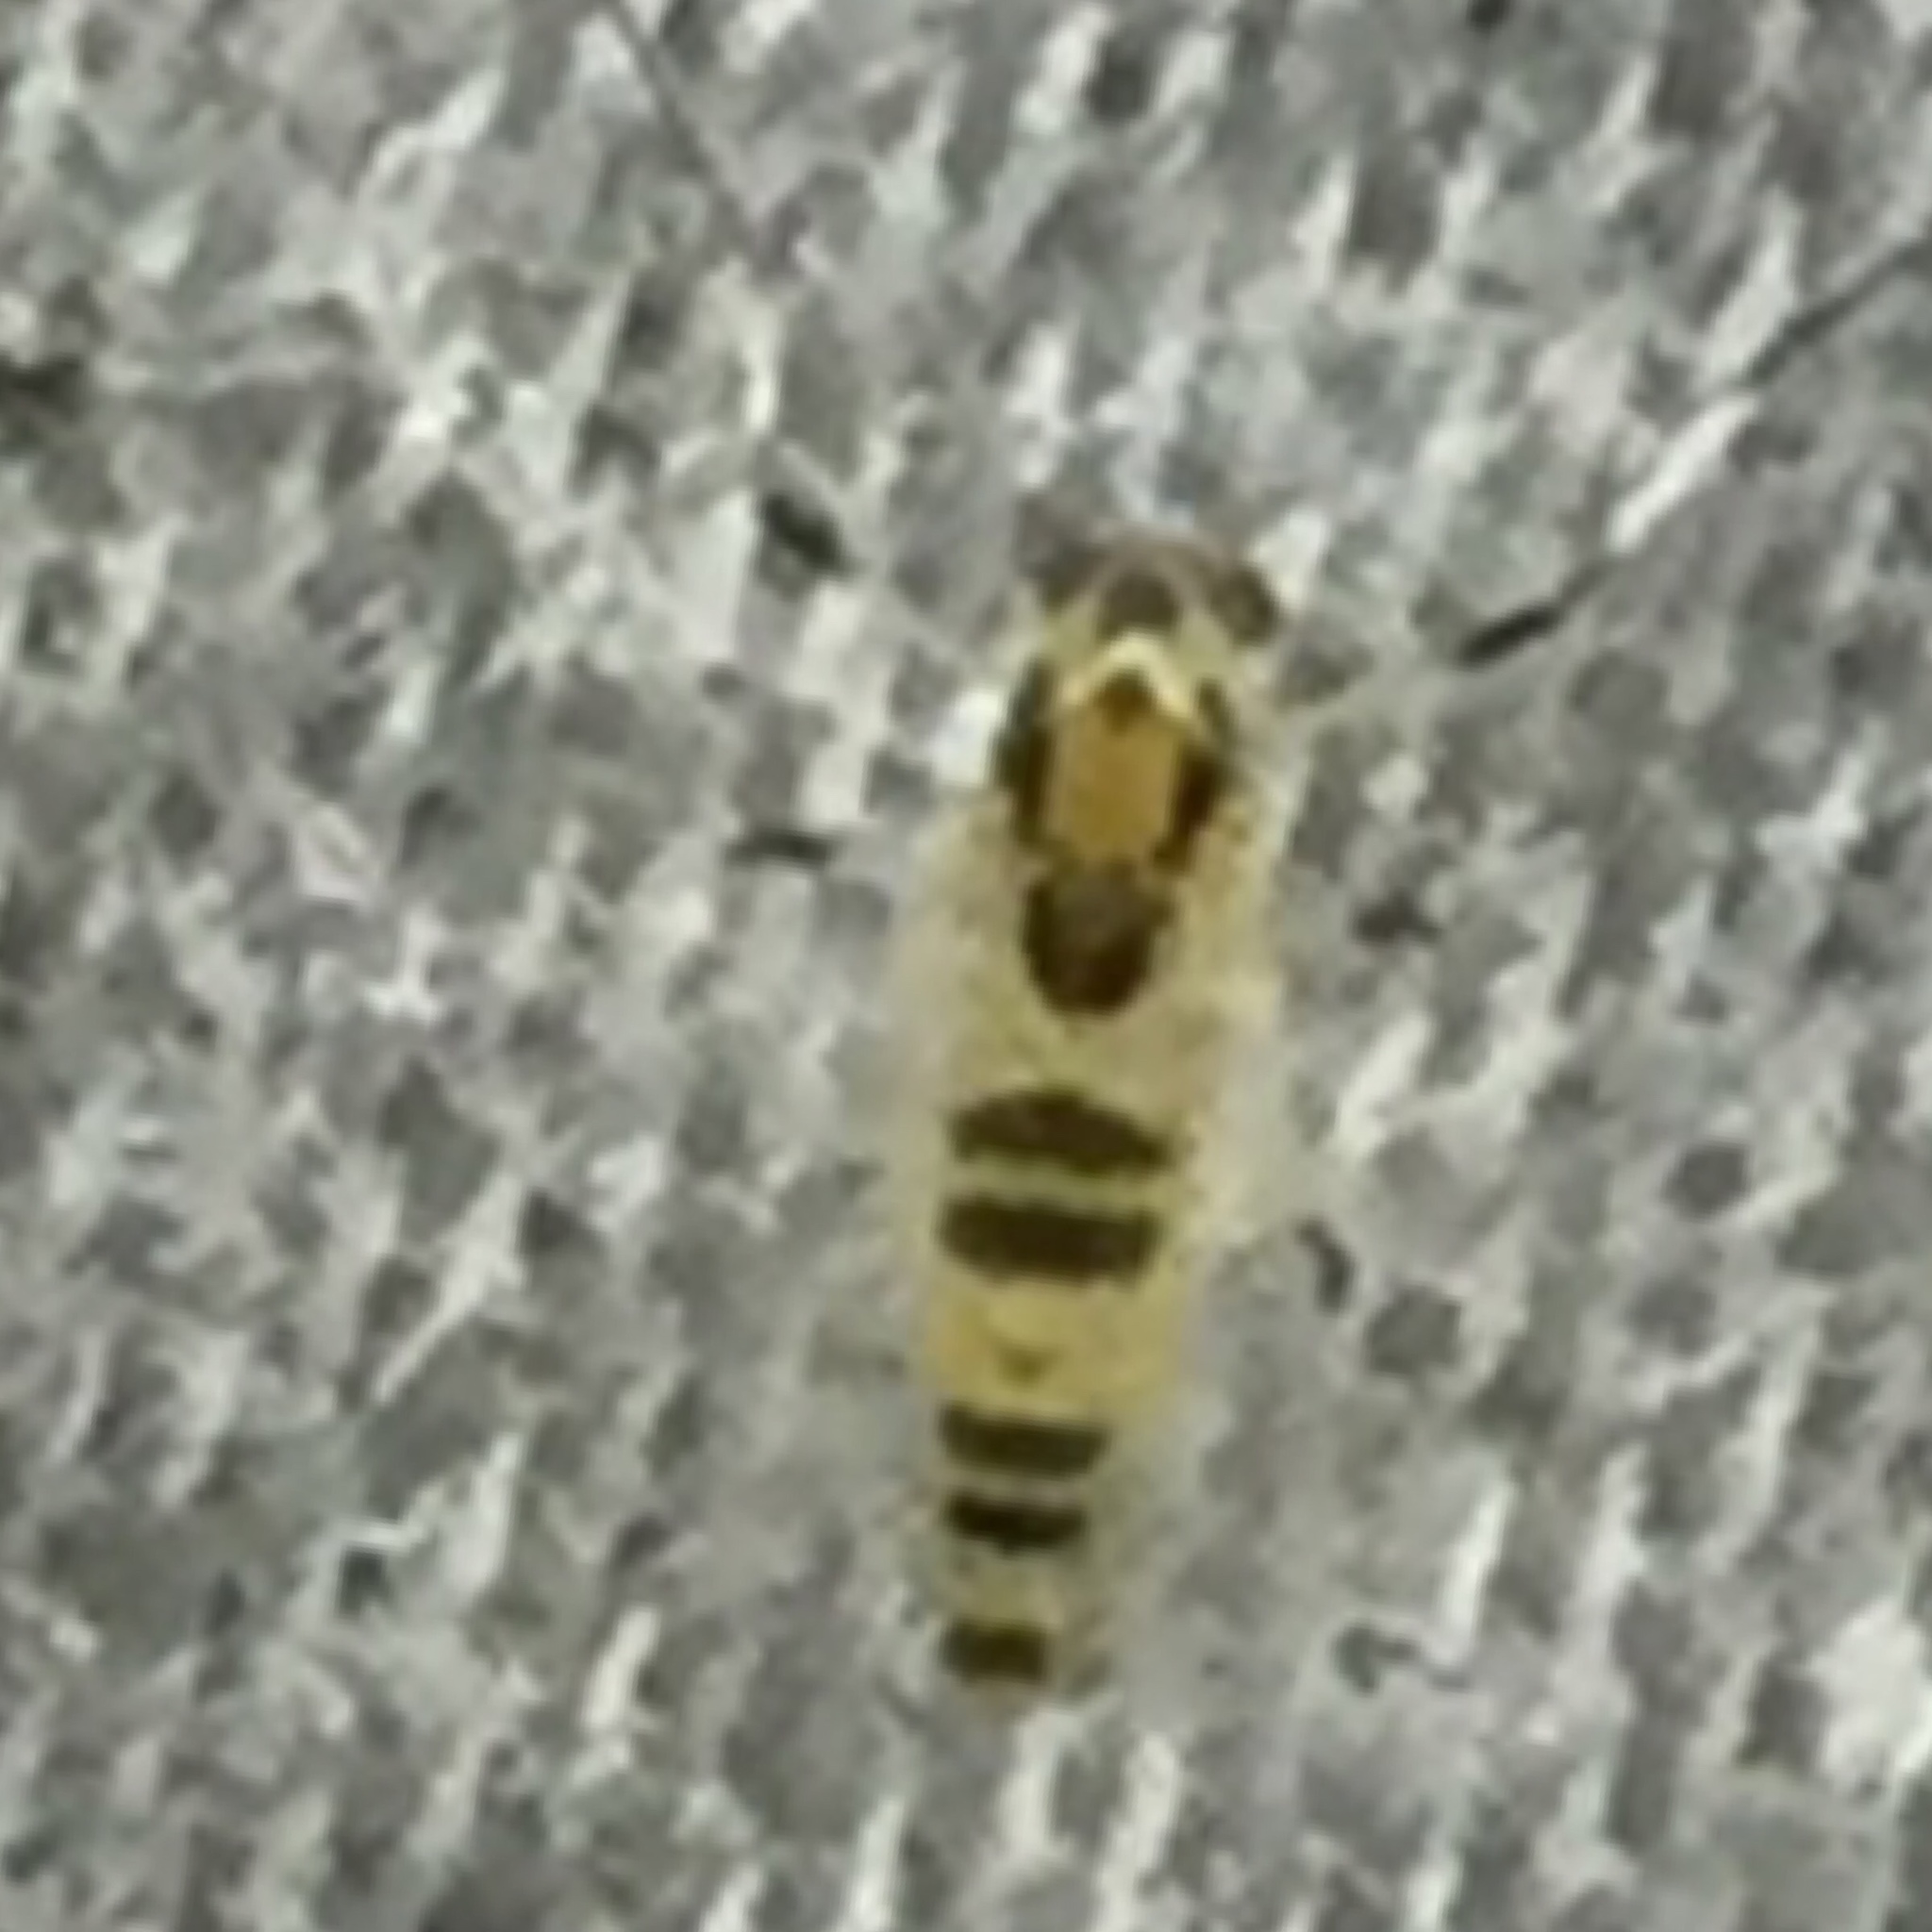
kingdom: Animalia
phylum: Arthropoda
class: Insecta
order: Diptera
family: Chironomidae
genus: Cricotopus
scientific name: Cricotopus sylvestris
